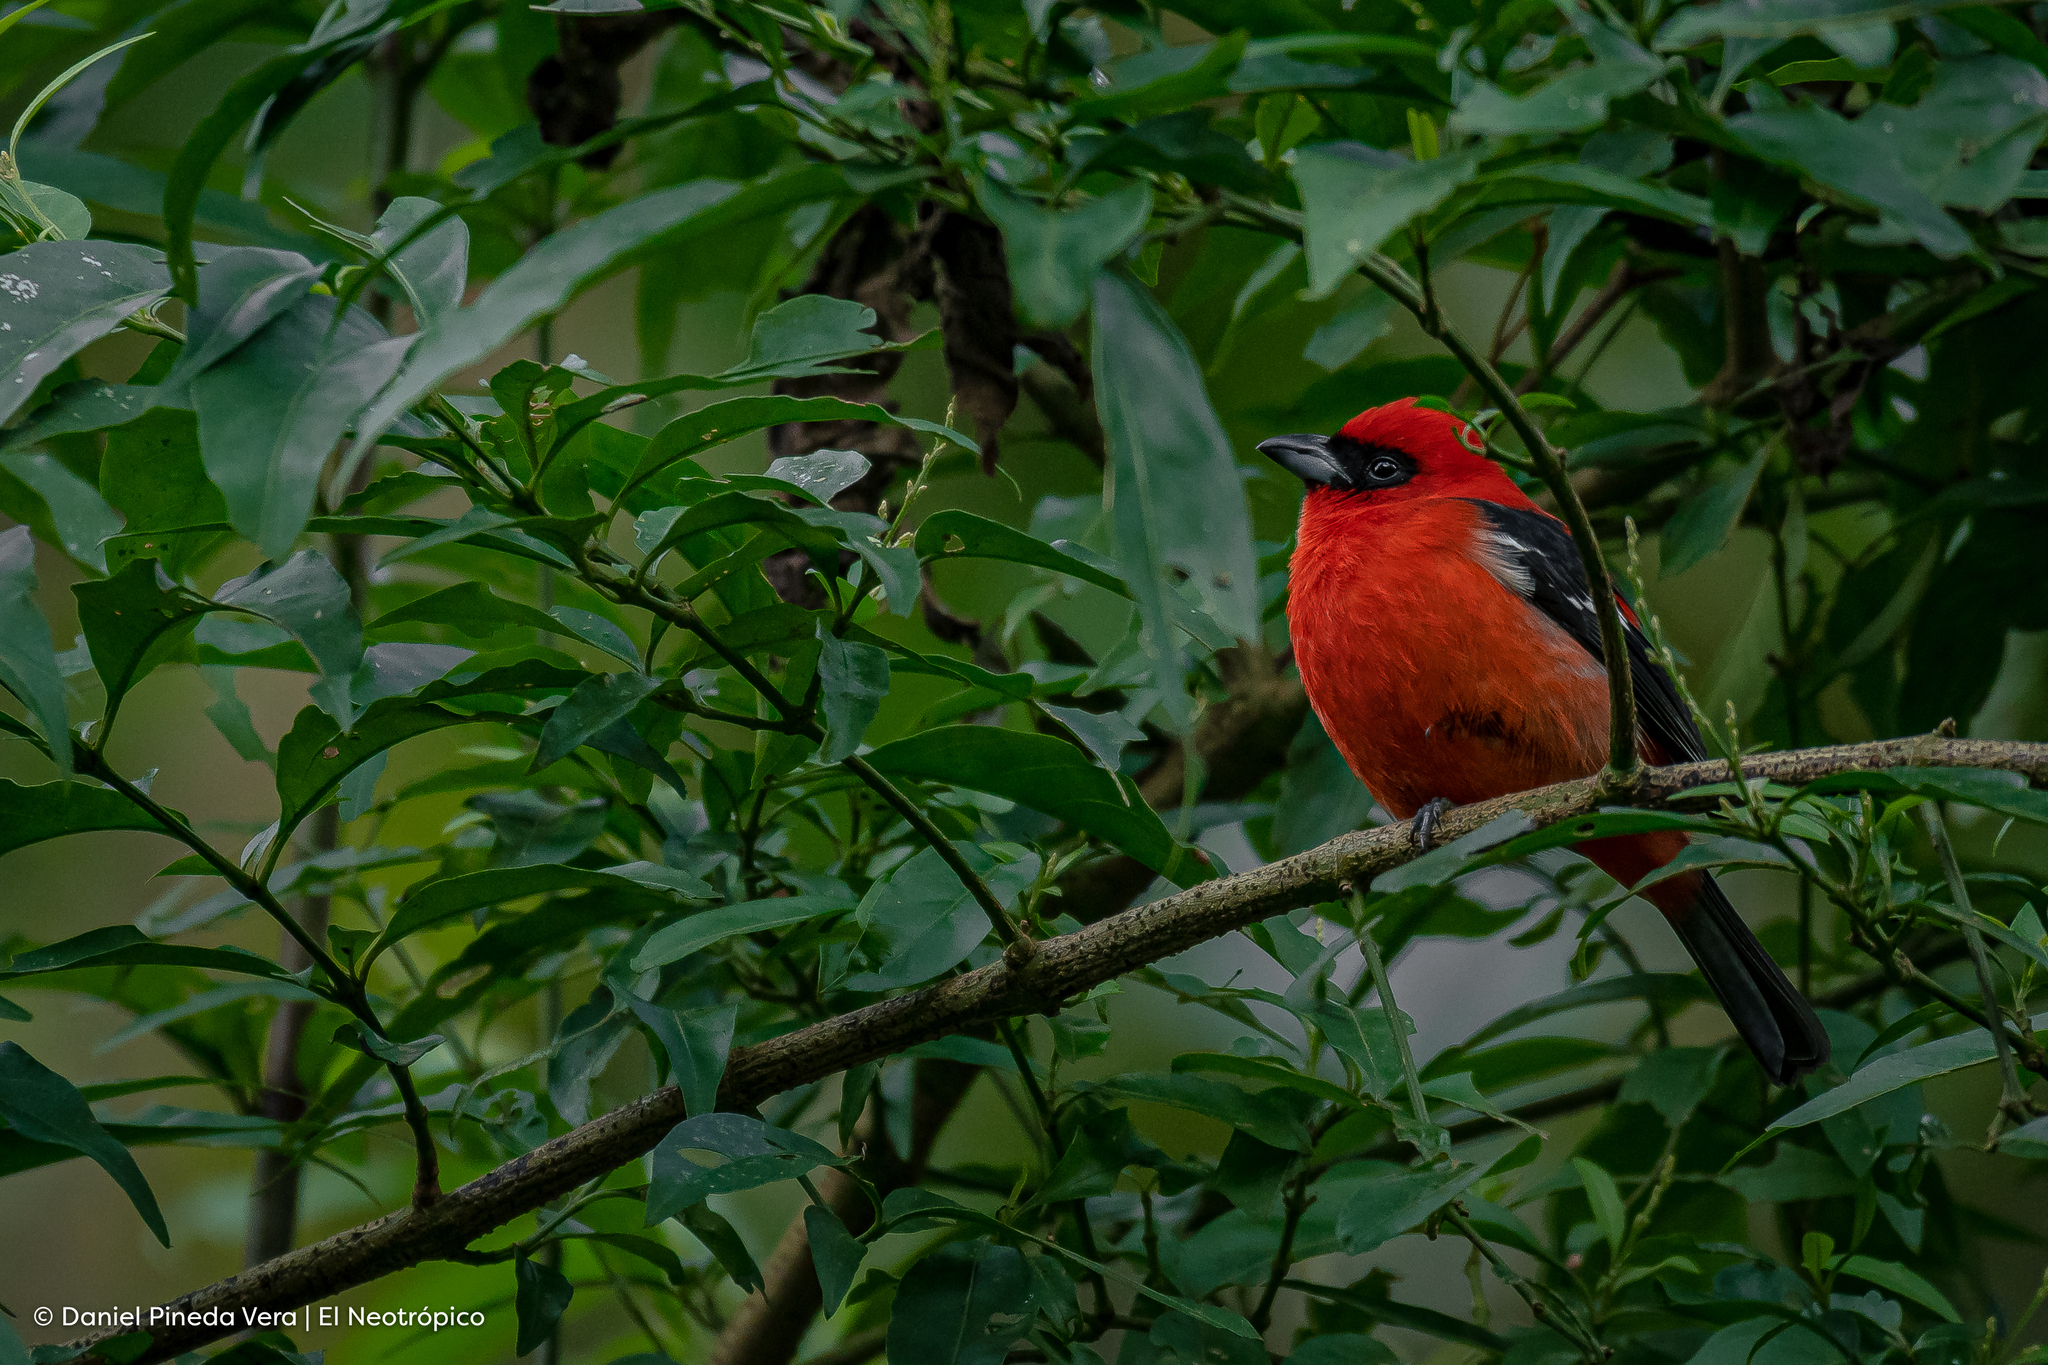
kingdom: Animalia
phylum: Chordata
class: Aves
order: Passeriformes
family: Cardinalidae
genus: Piranga
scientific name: Piranga leucoptera
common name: White-winged tanager
